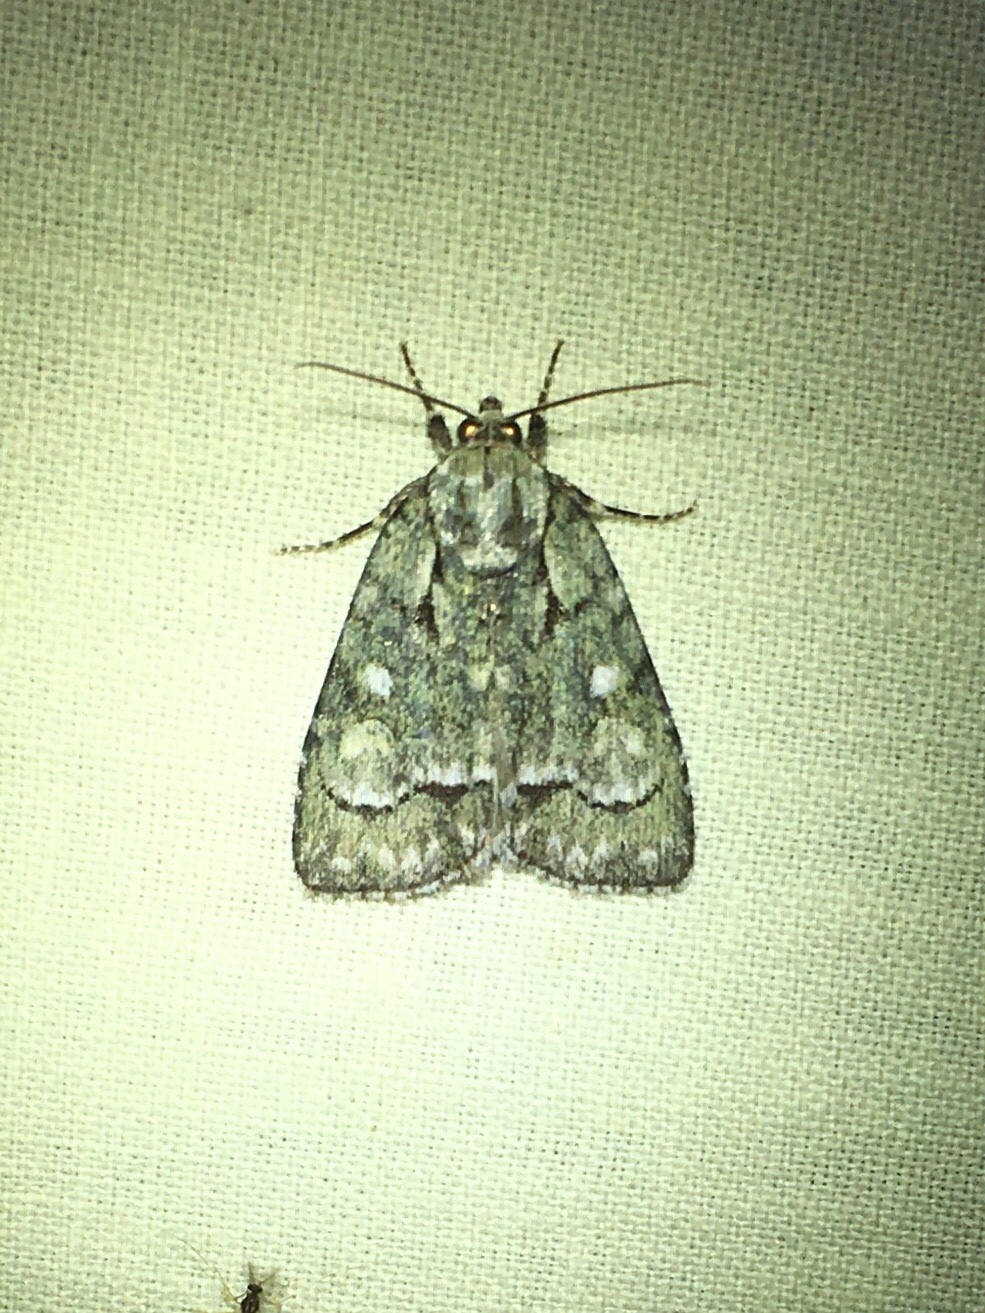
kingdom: Animalia
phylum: Arthropoda
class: Insecta
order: Lepidoptera
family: Noctuidae
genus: Acronicta
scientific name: Acronicta vinnula
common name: Delightful dagger
